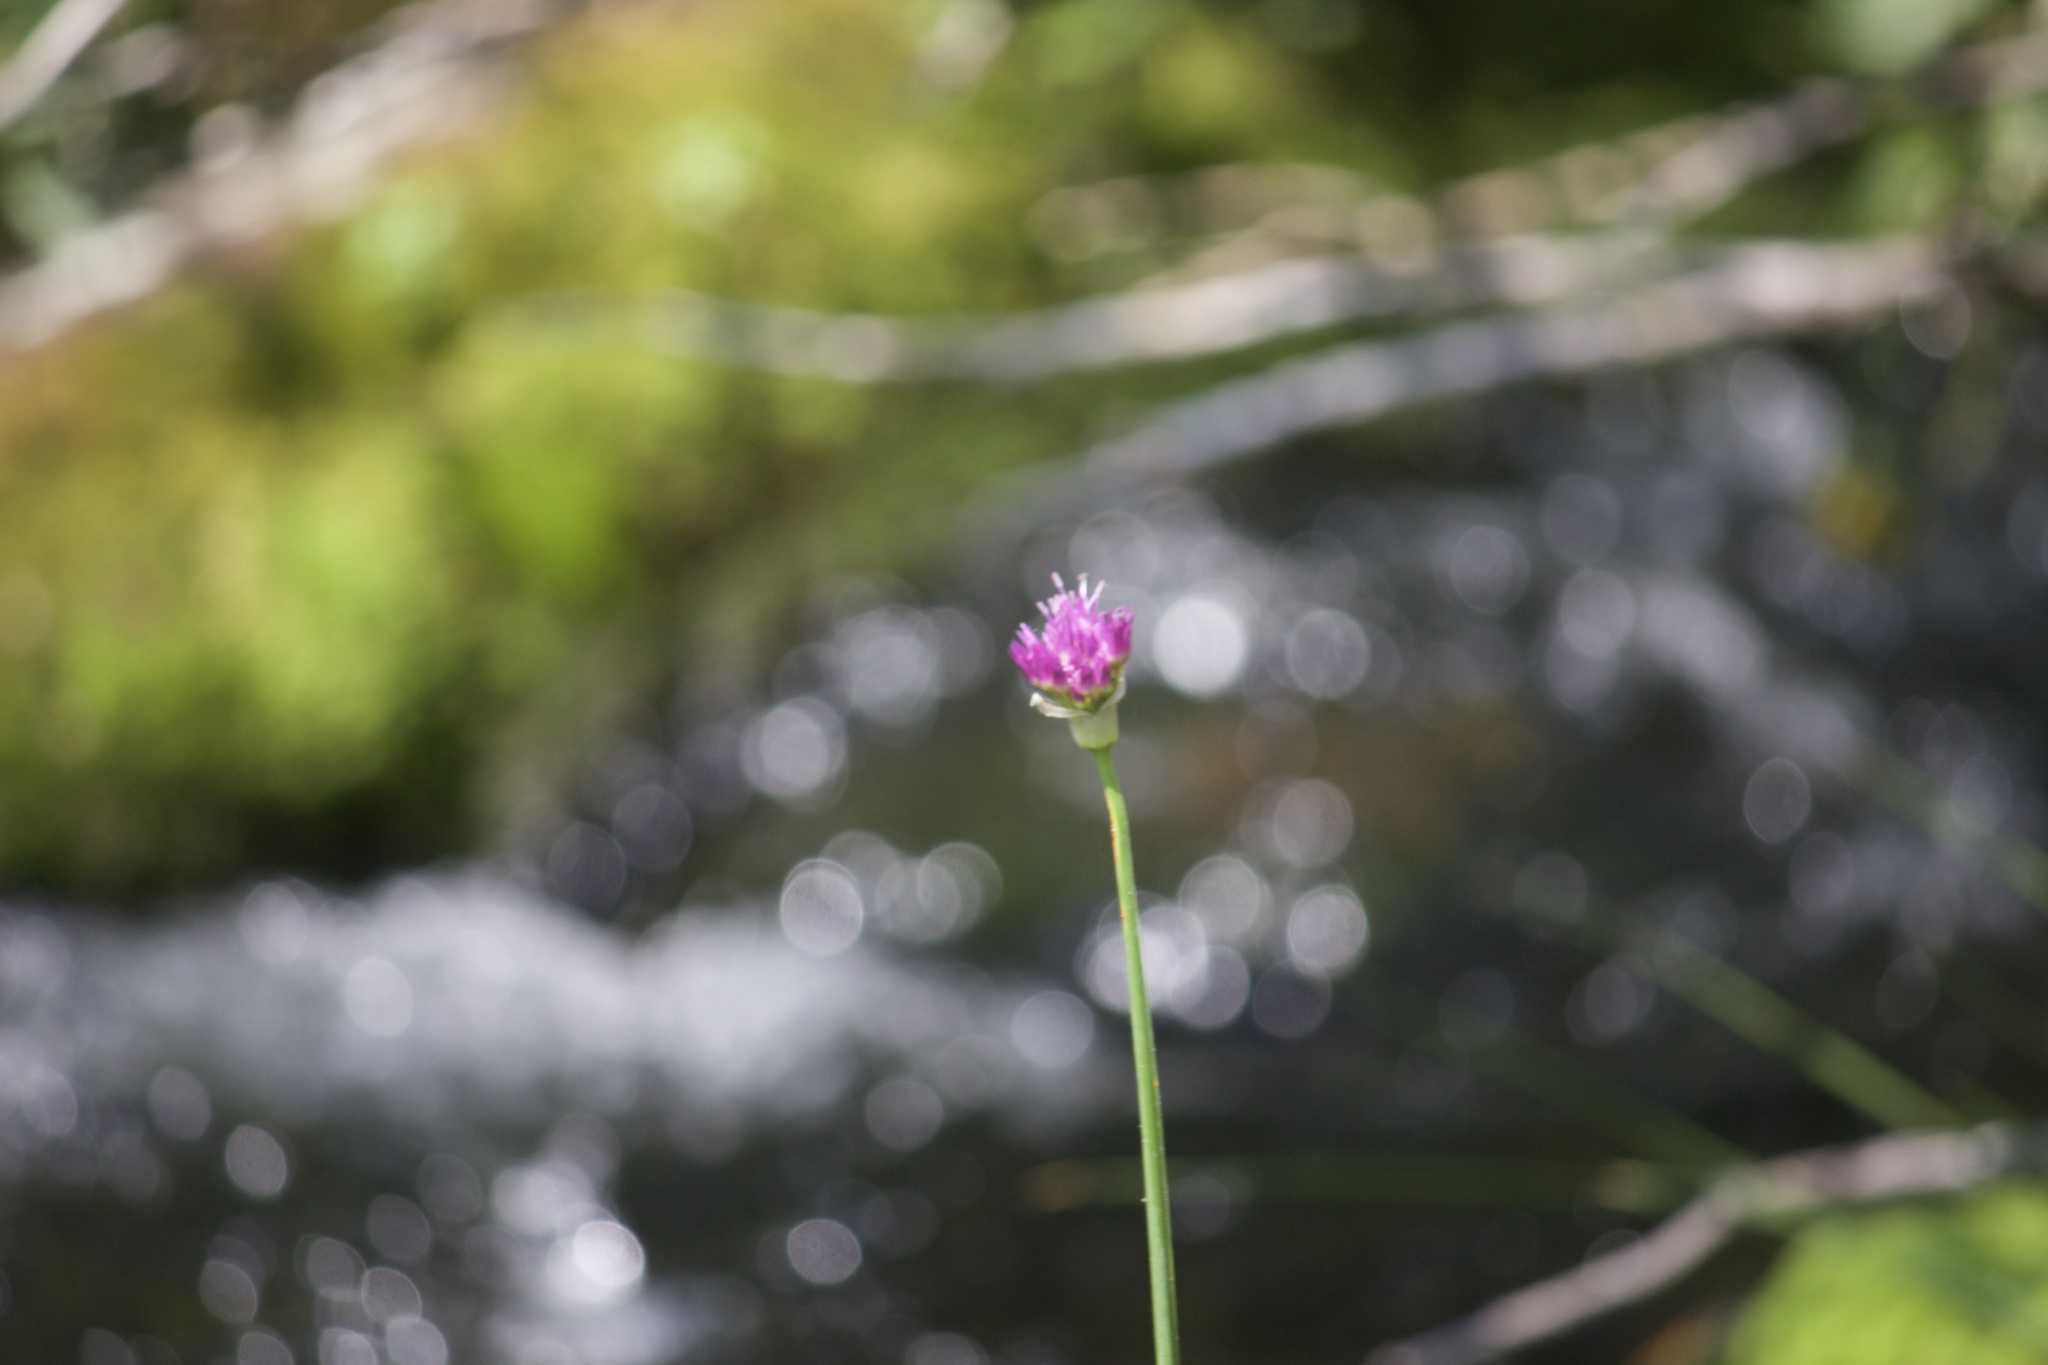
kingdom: Plantae
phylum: Tracheophyta
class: Liliopsida
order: Asparagales
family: Amaryllidaceae
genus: Allium
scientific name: Allium validum
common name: Pacific mountain onion
